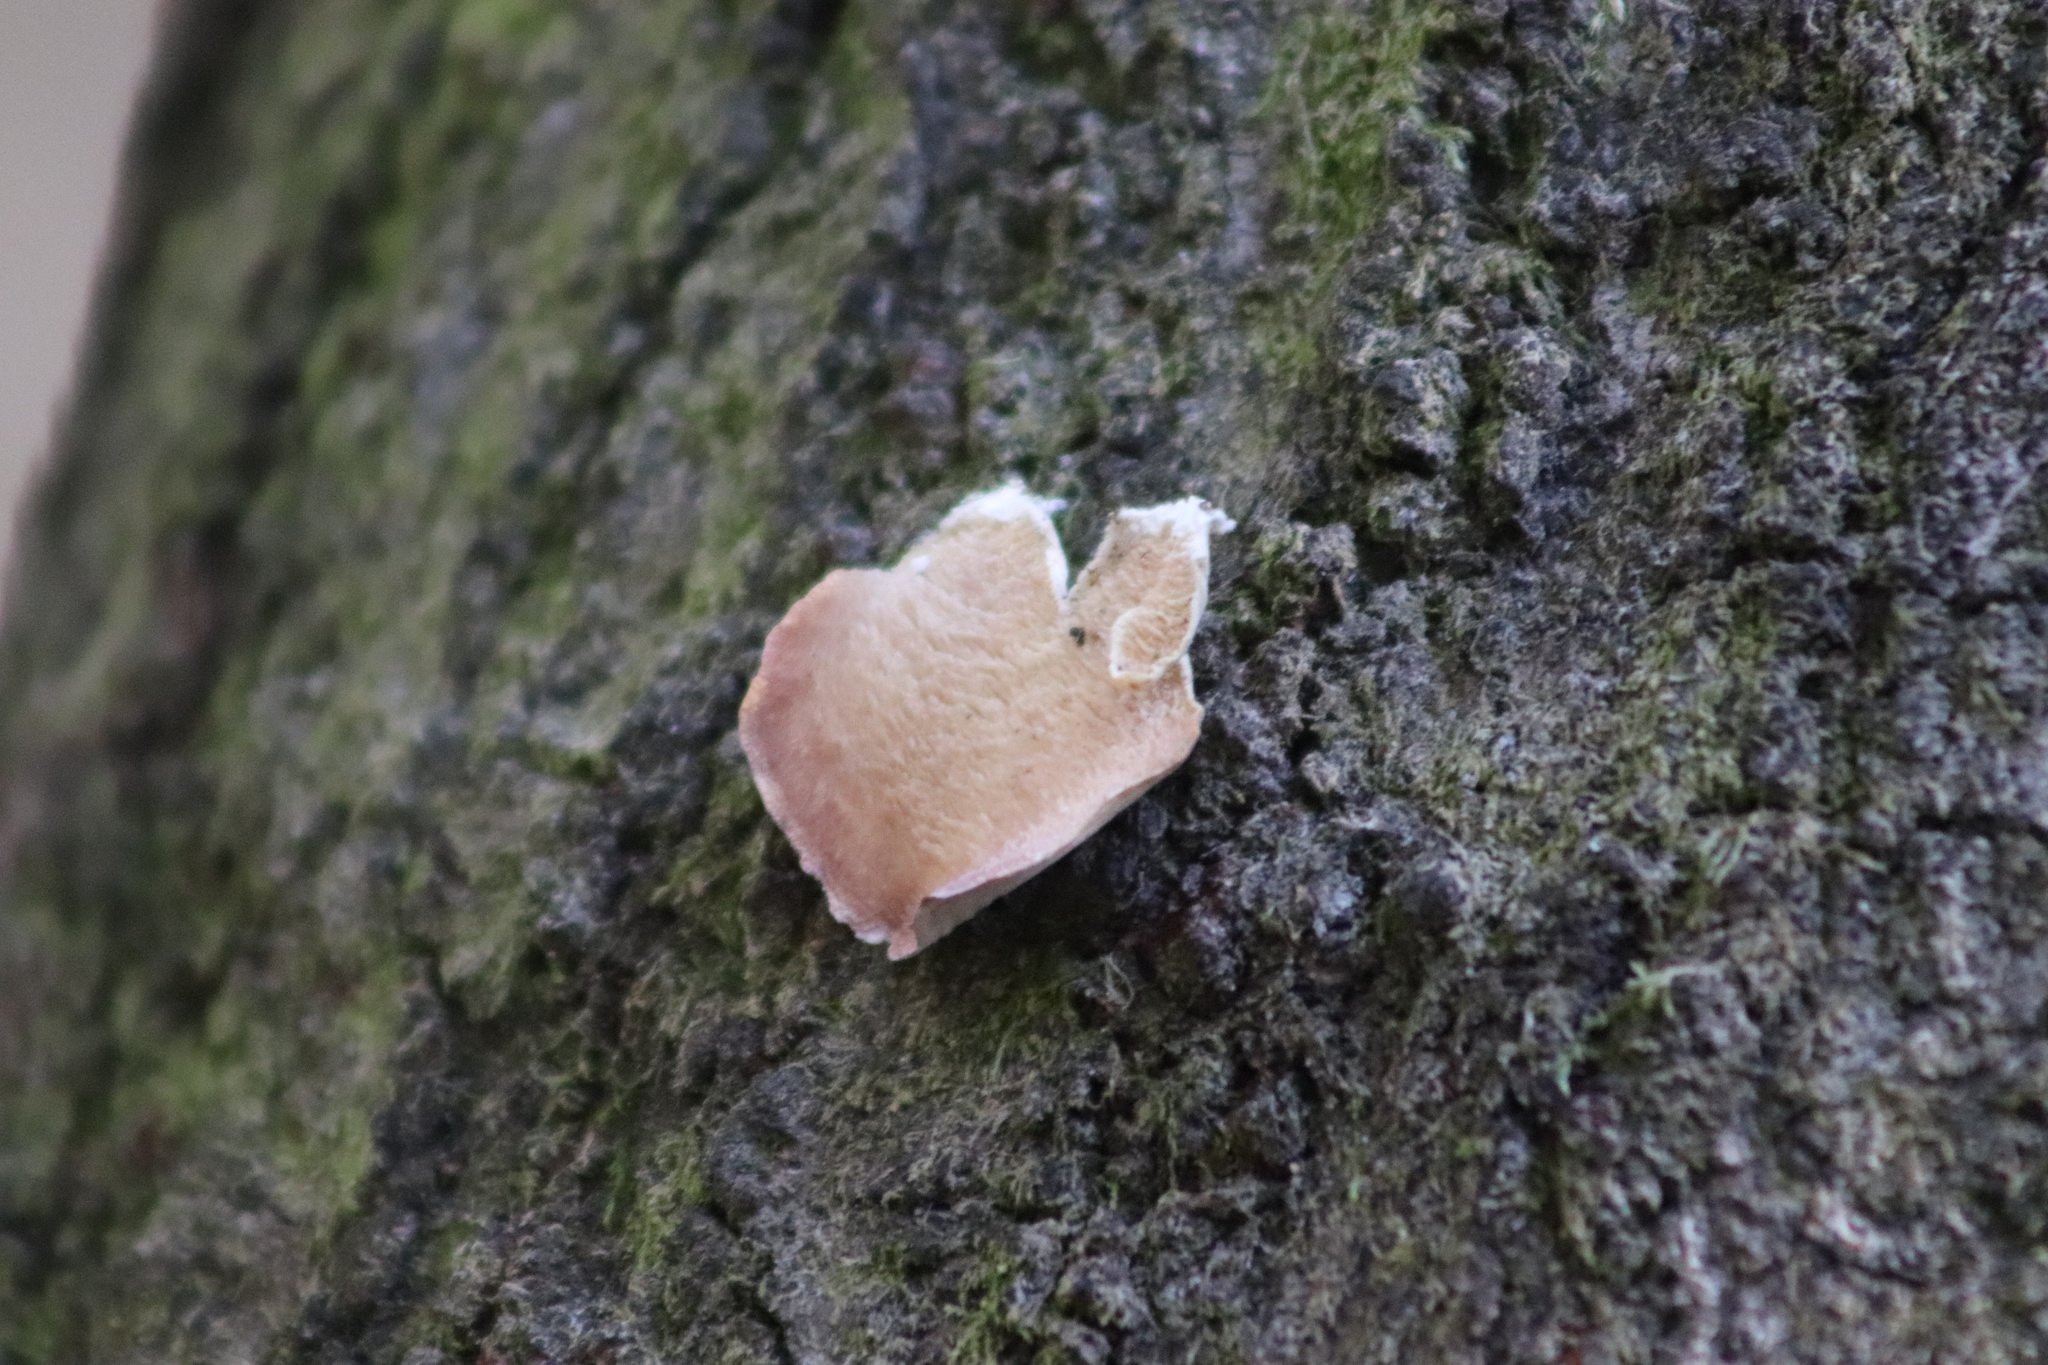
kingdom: Fungi
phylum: Basidiomycota
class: Agaricomycetes
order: Hymenochaetales
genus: Trichaptum
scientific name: Trichaptum biforme
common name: Violet-toothed polypore
